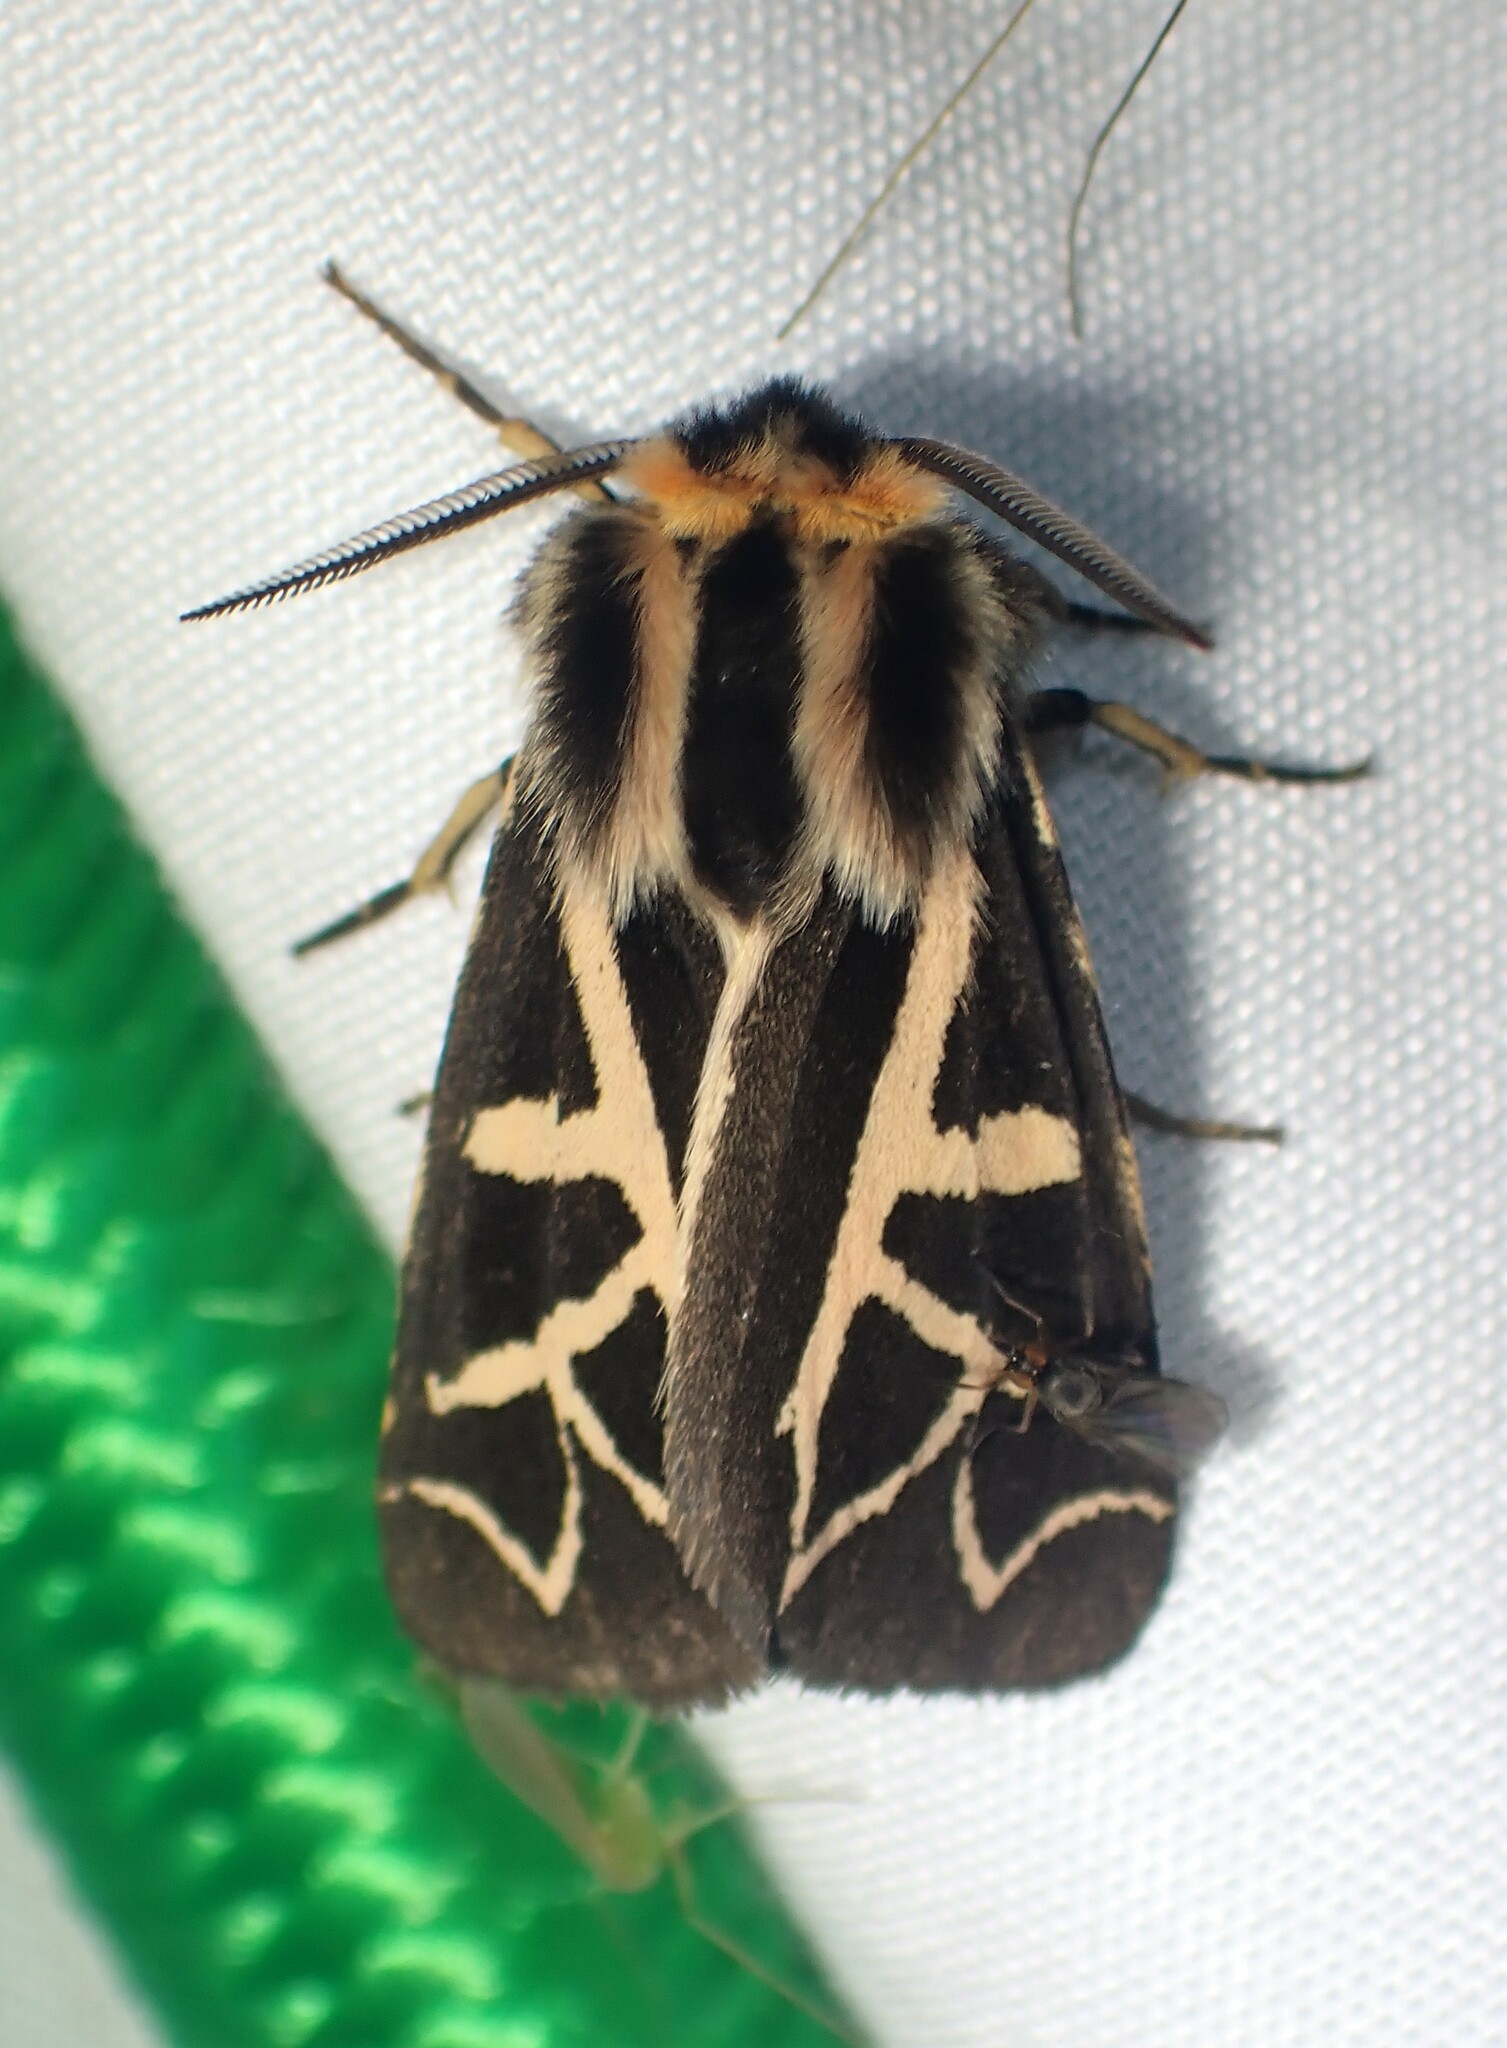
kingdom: Animalia
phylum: Arthropoda
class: Insecta
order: Lepidoptera
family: Erebidae
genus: Apantesis
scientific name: Apantesis
